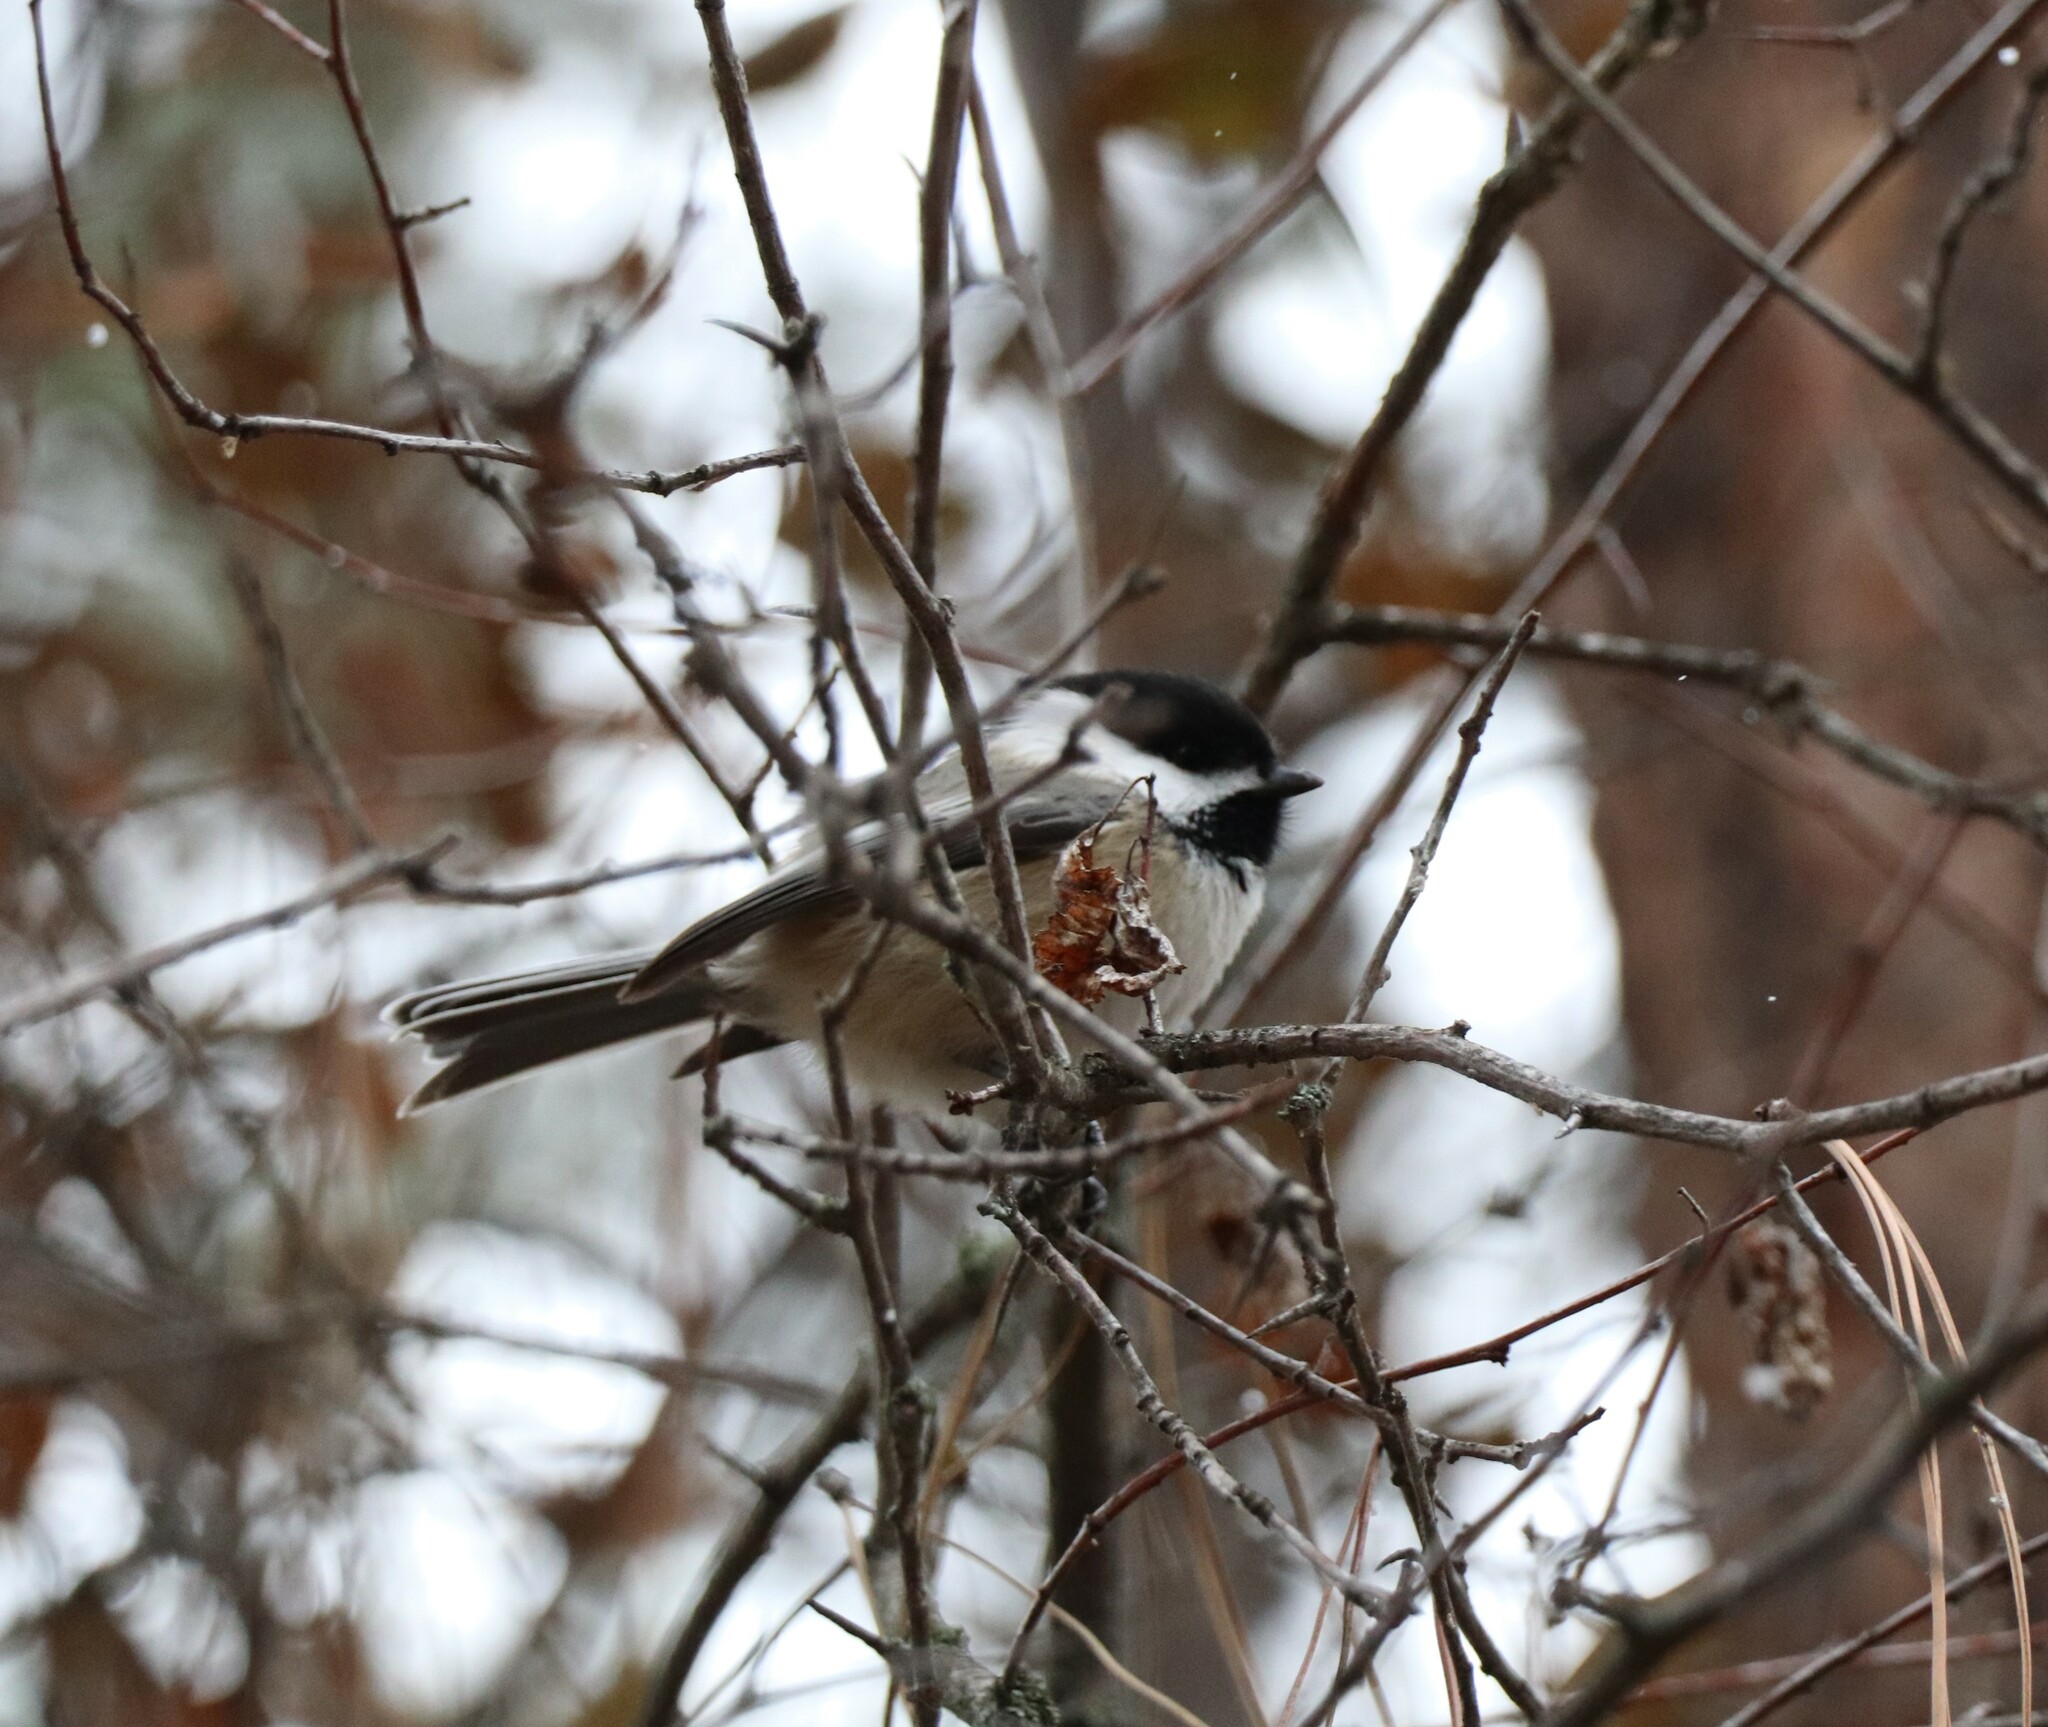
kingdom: Animalia
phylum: Chordata
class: Aves
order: Passeriformes
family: Paridae
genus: Poecile
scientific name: Poecile atricapillus
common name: Black-capped chickadee
